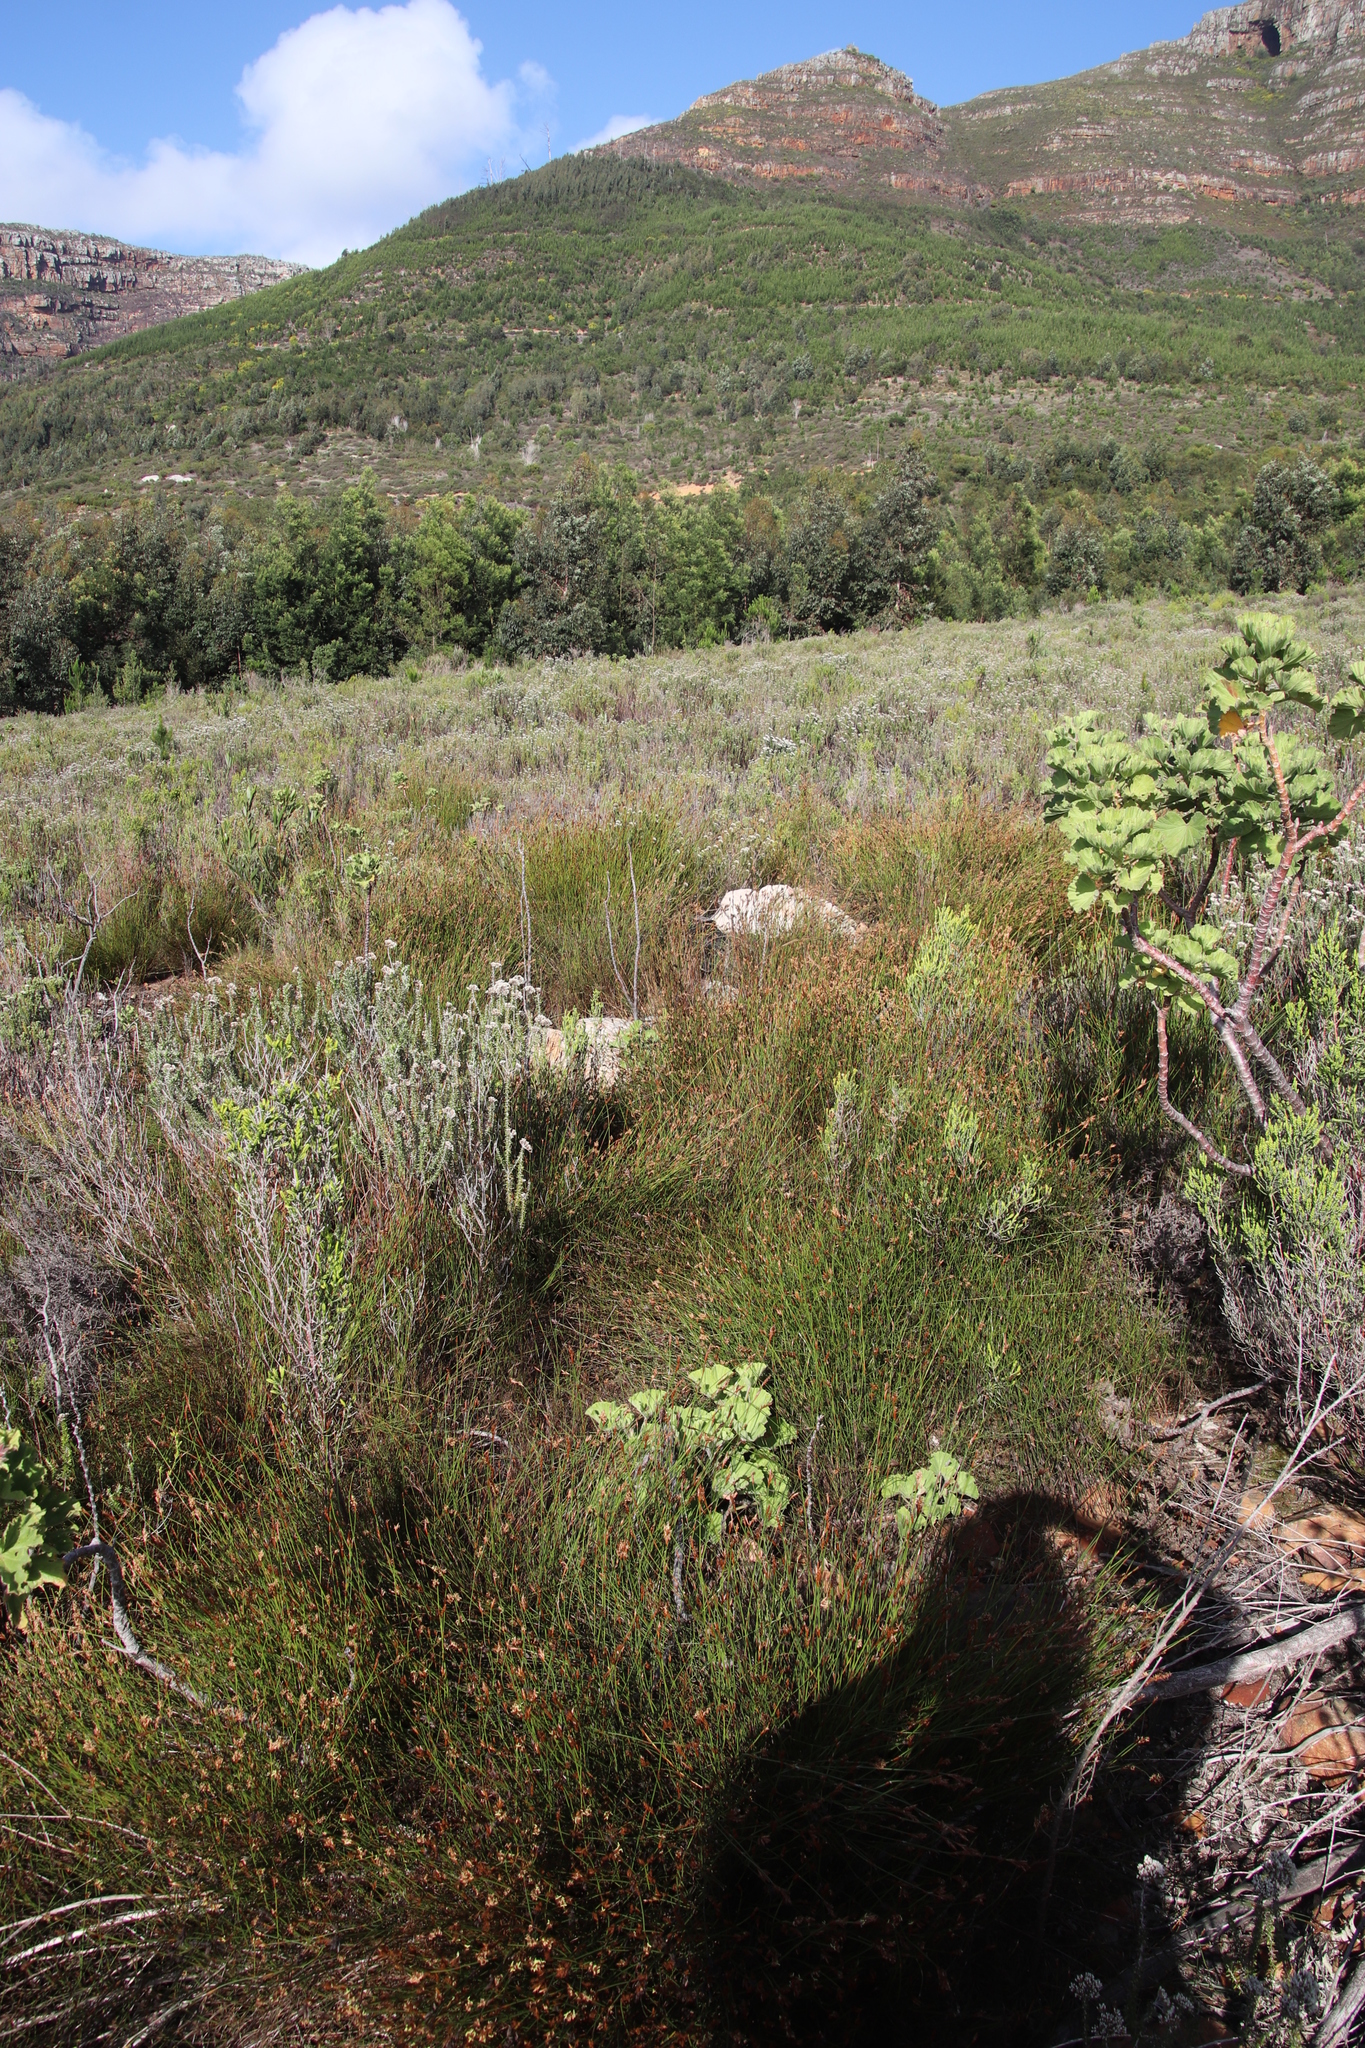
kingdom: Plantae
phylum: Tracheophyta
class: Liliopsida
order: Poales
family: Restionaceae
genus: Restio
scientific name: Restio capensis
